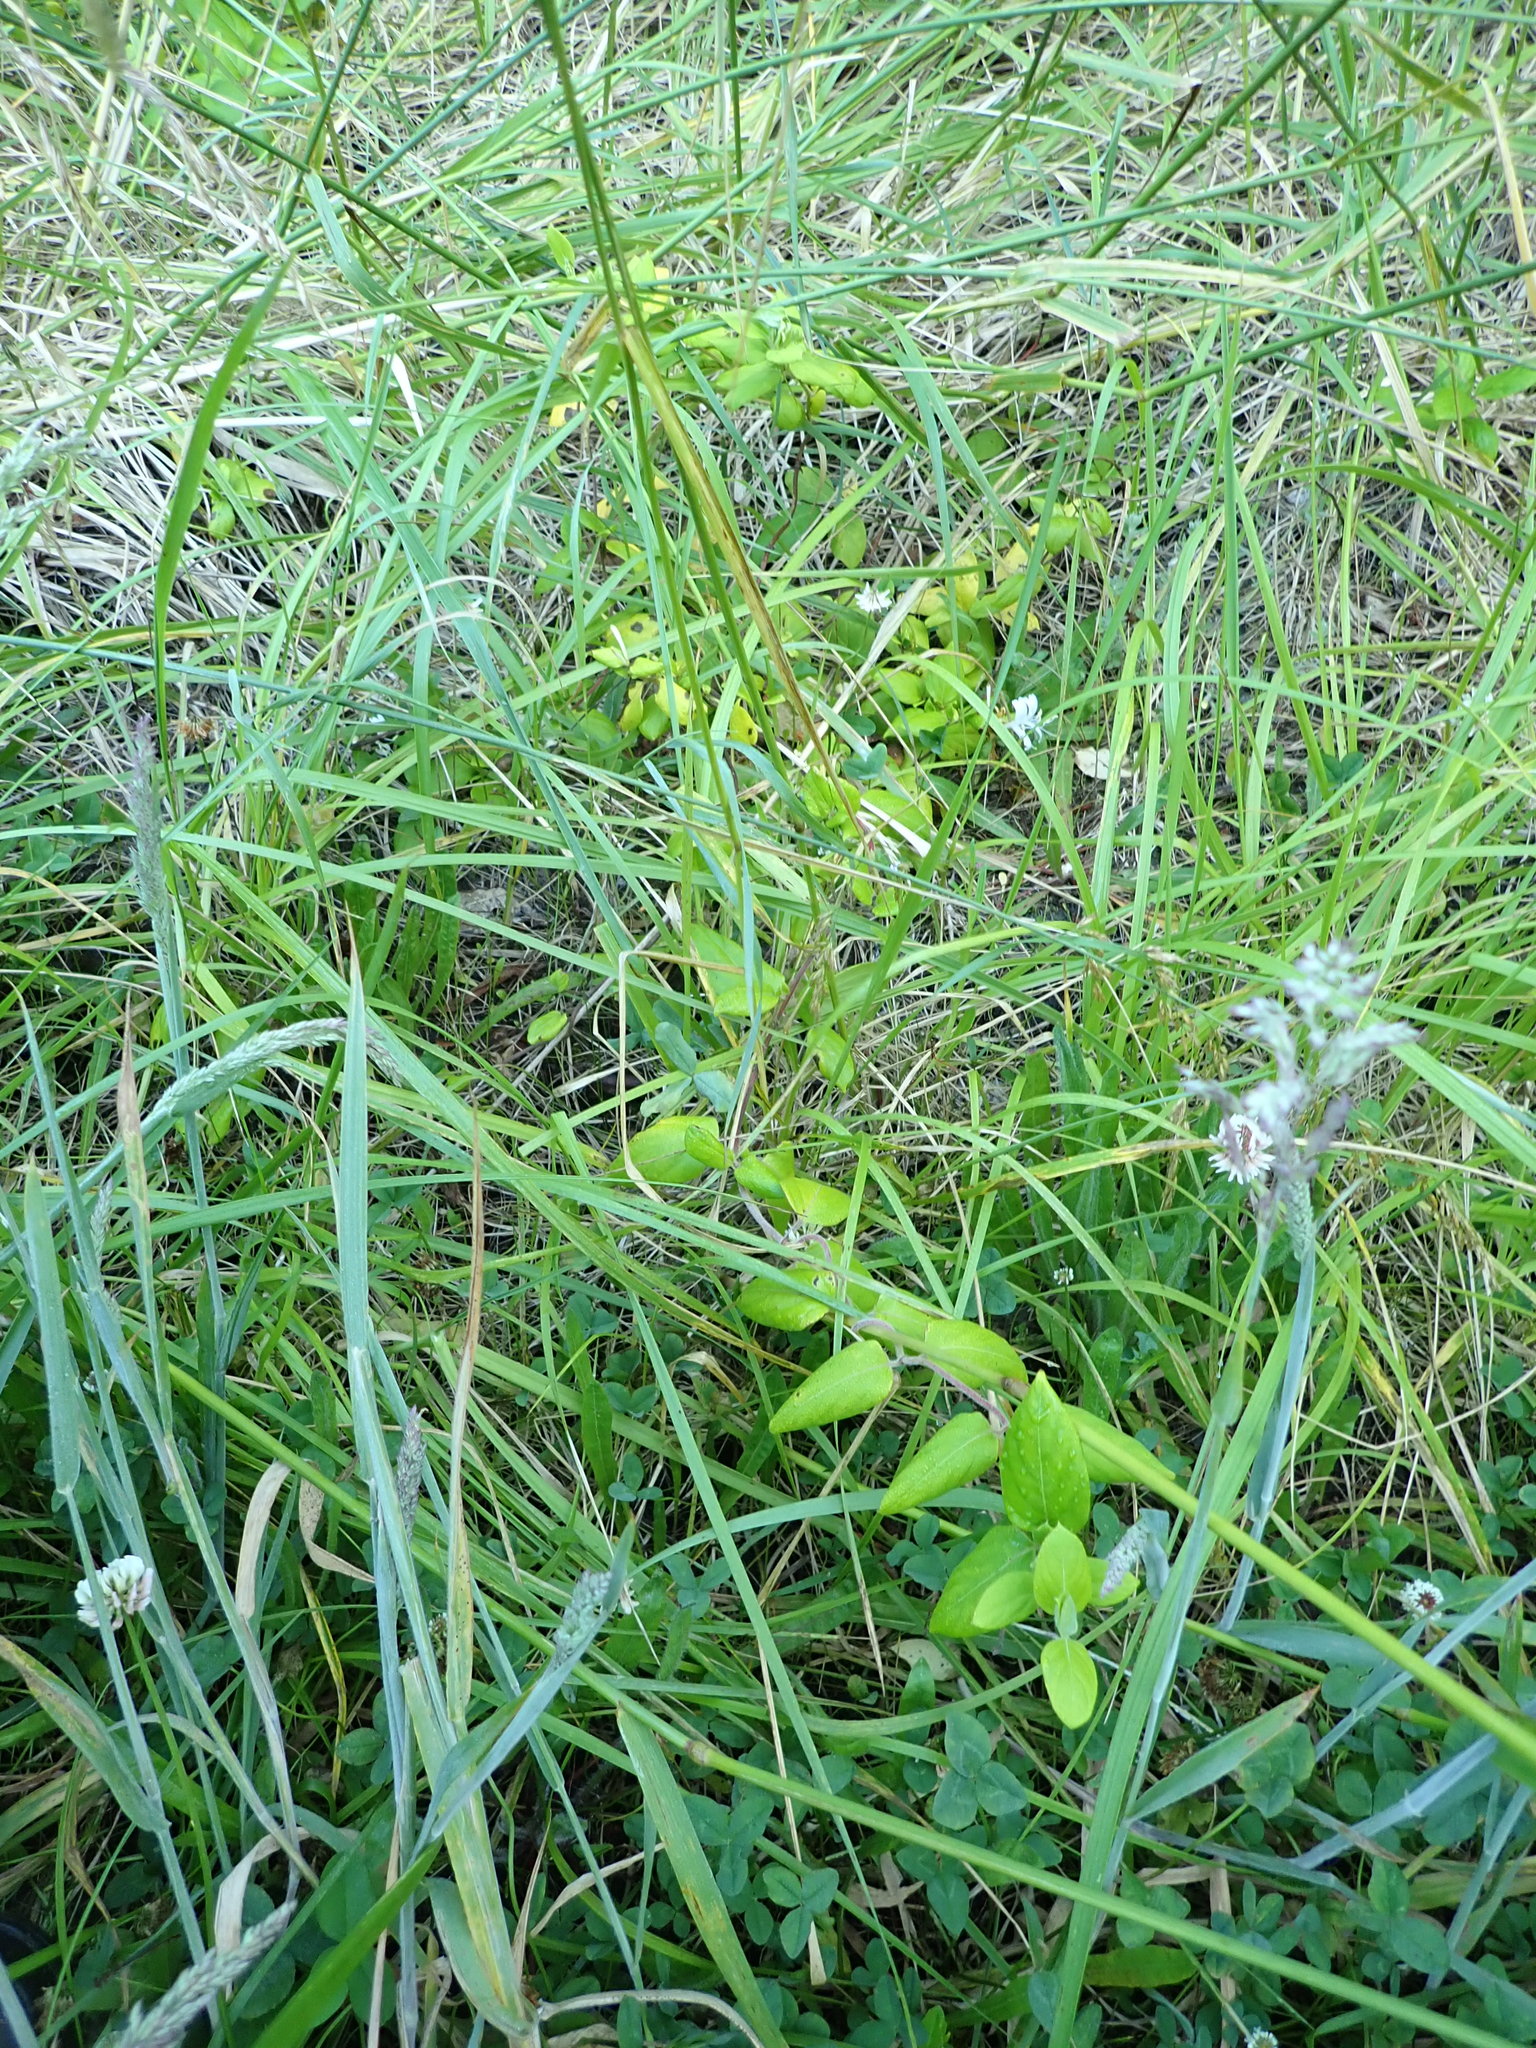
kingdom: Plantae
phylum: Tracheophyta
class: Magnoliopsida
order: Dipsacales
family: Caprifoliaceae
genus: Lonicera
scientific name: Lonicera japonica
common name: Japanese honeysuckle
